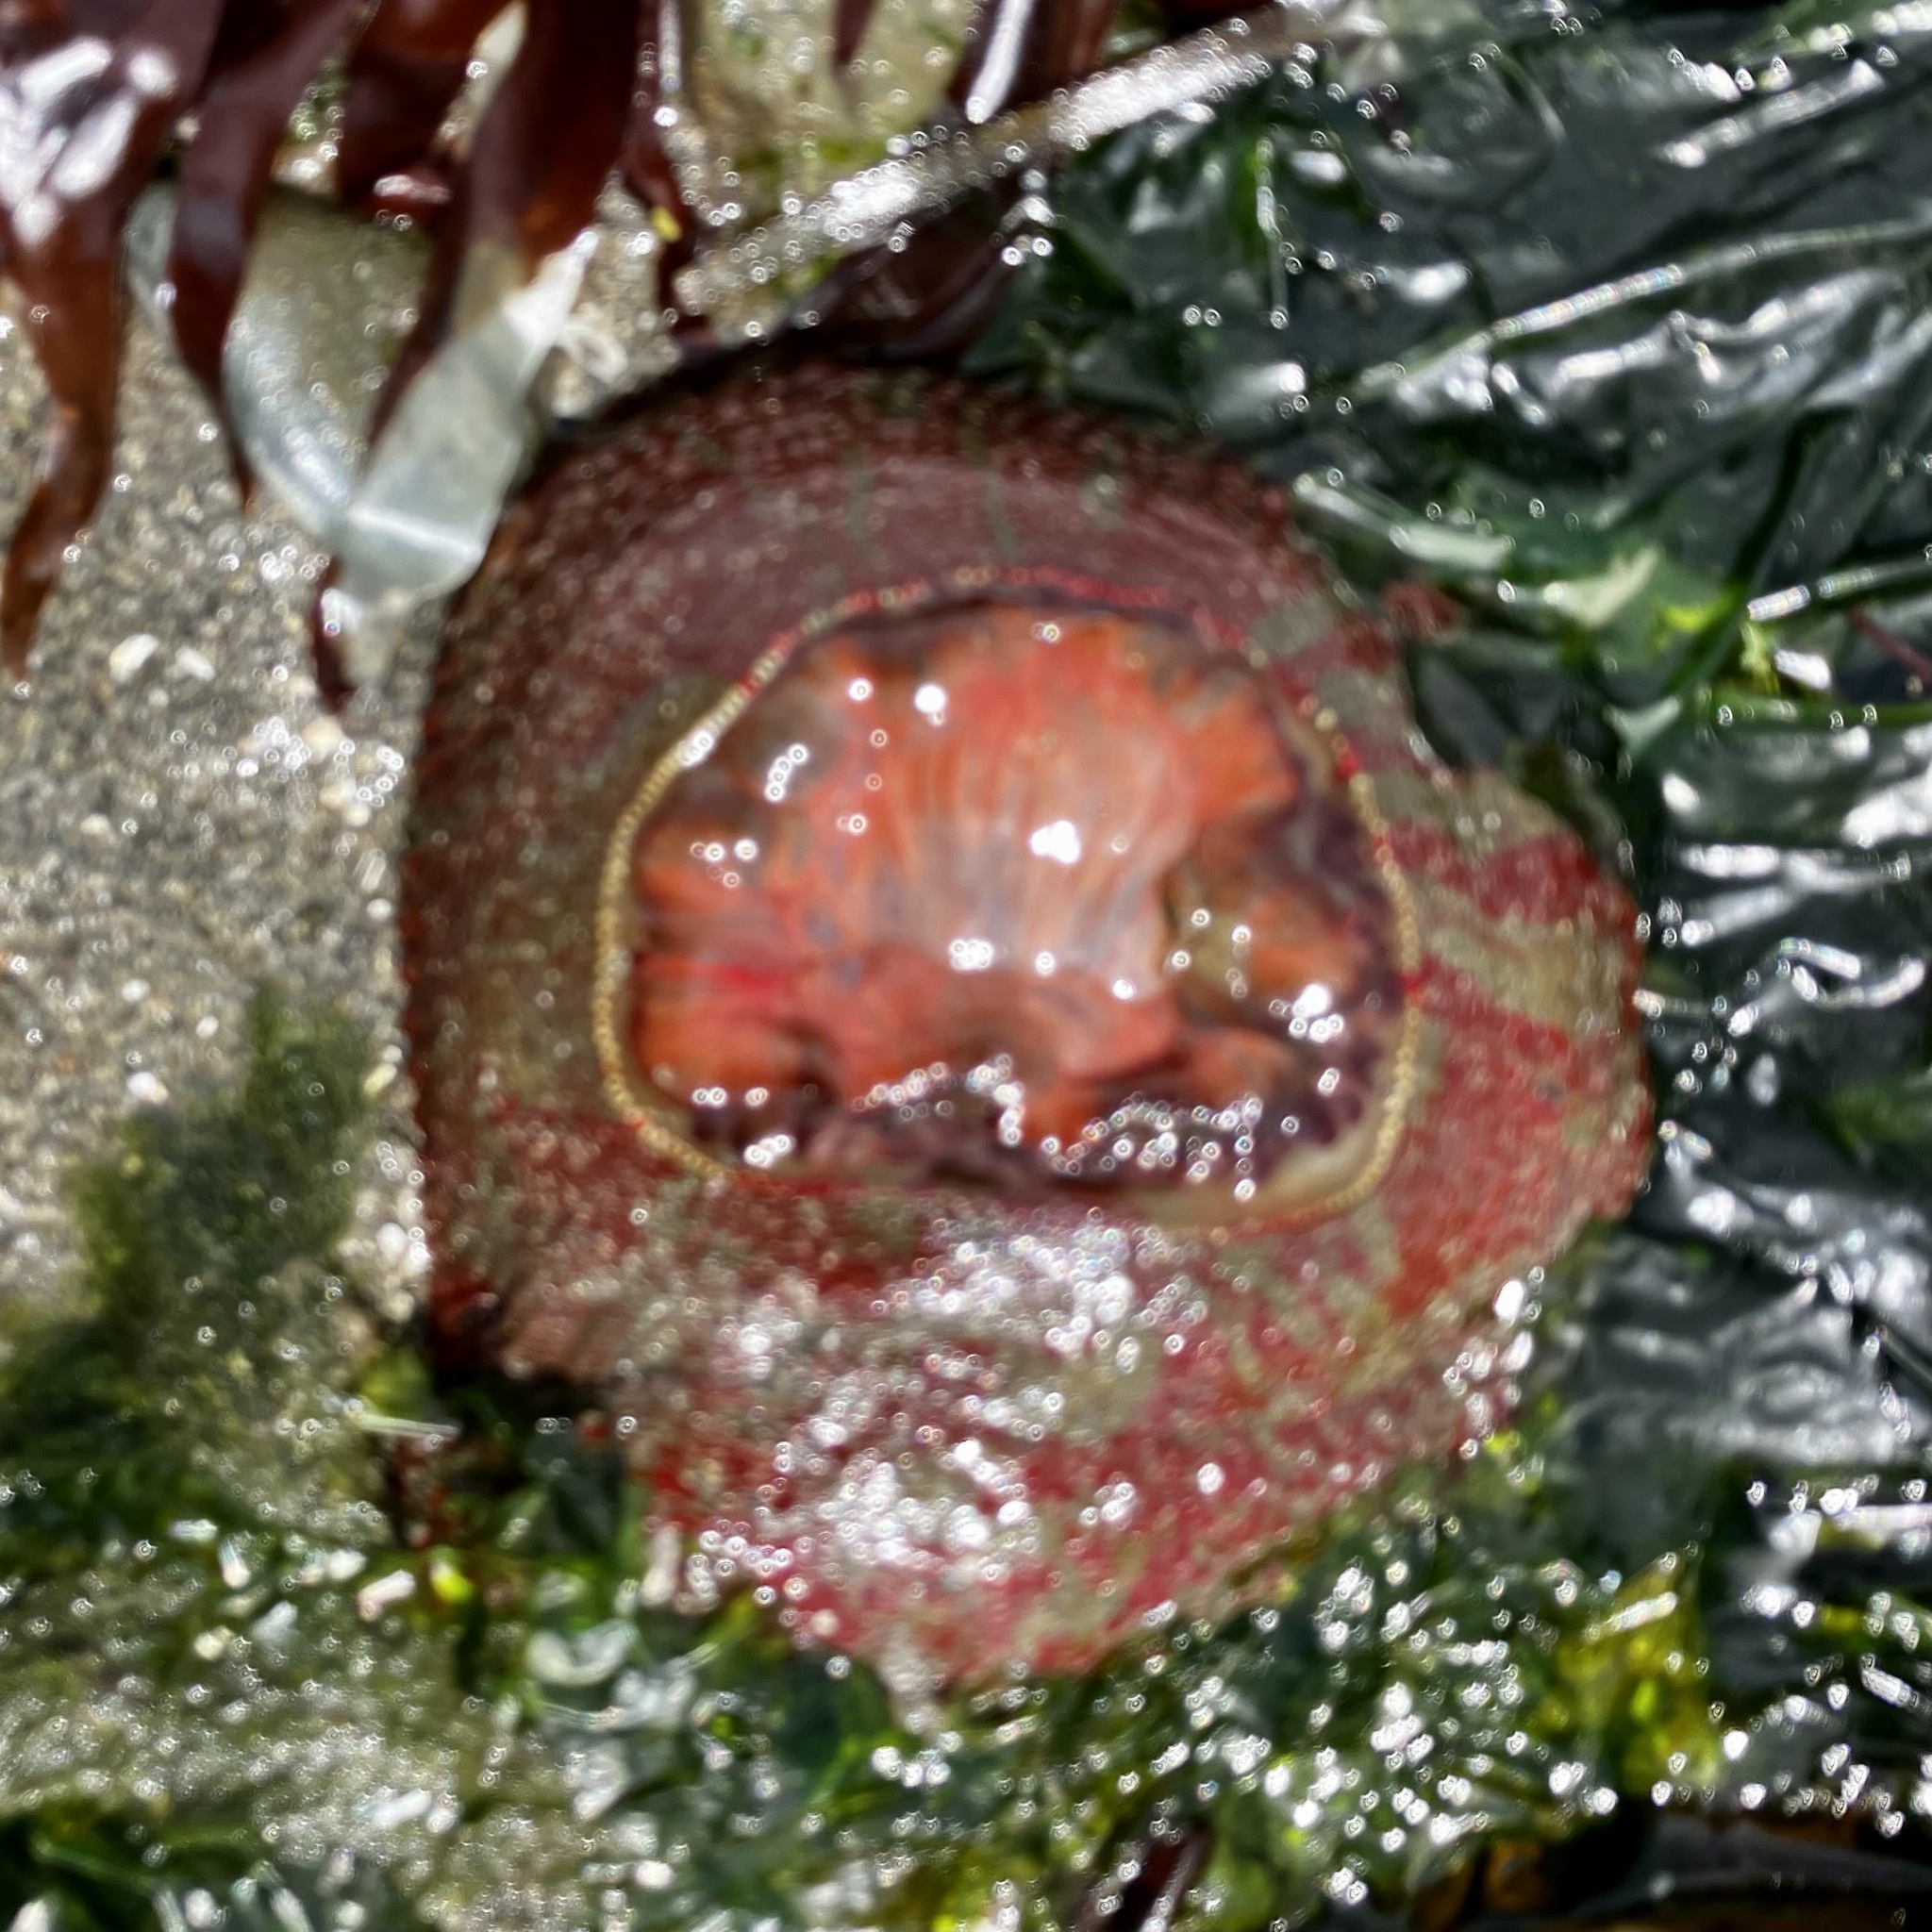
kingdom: Animalia
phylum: Cnidaria
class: Anthozoa
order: Actiniaria
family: Actiniidae
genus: Urticina
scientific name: Urticina grebelnyi
